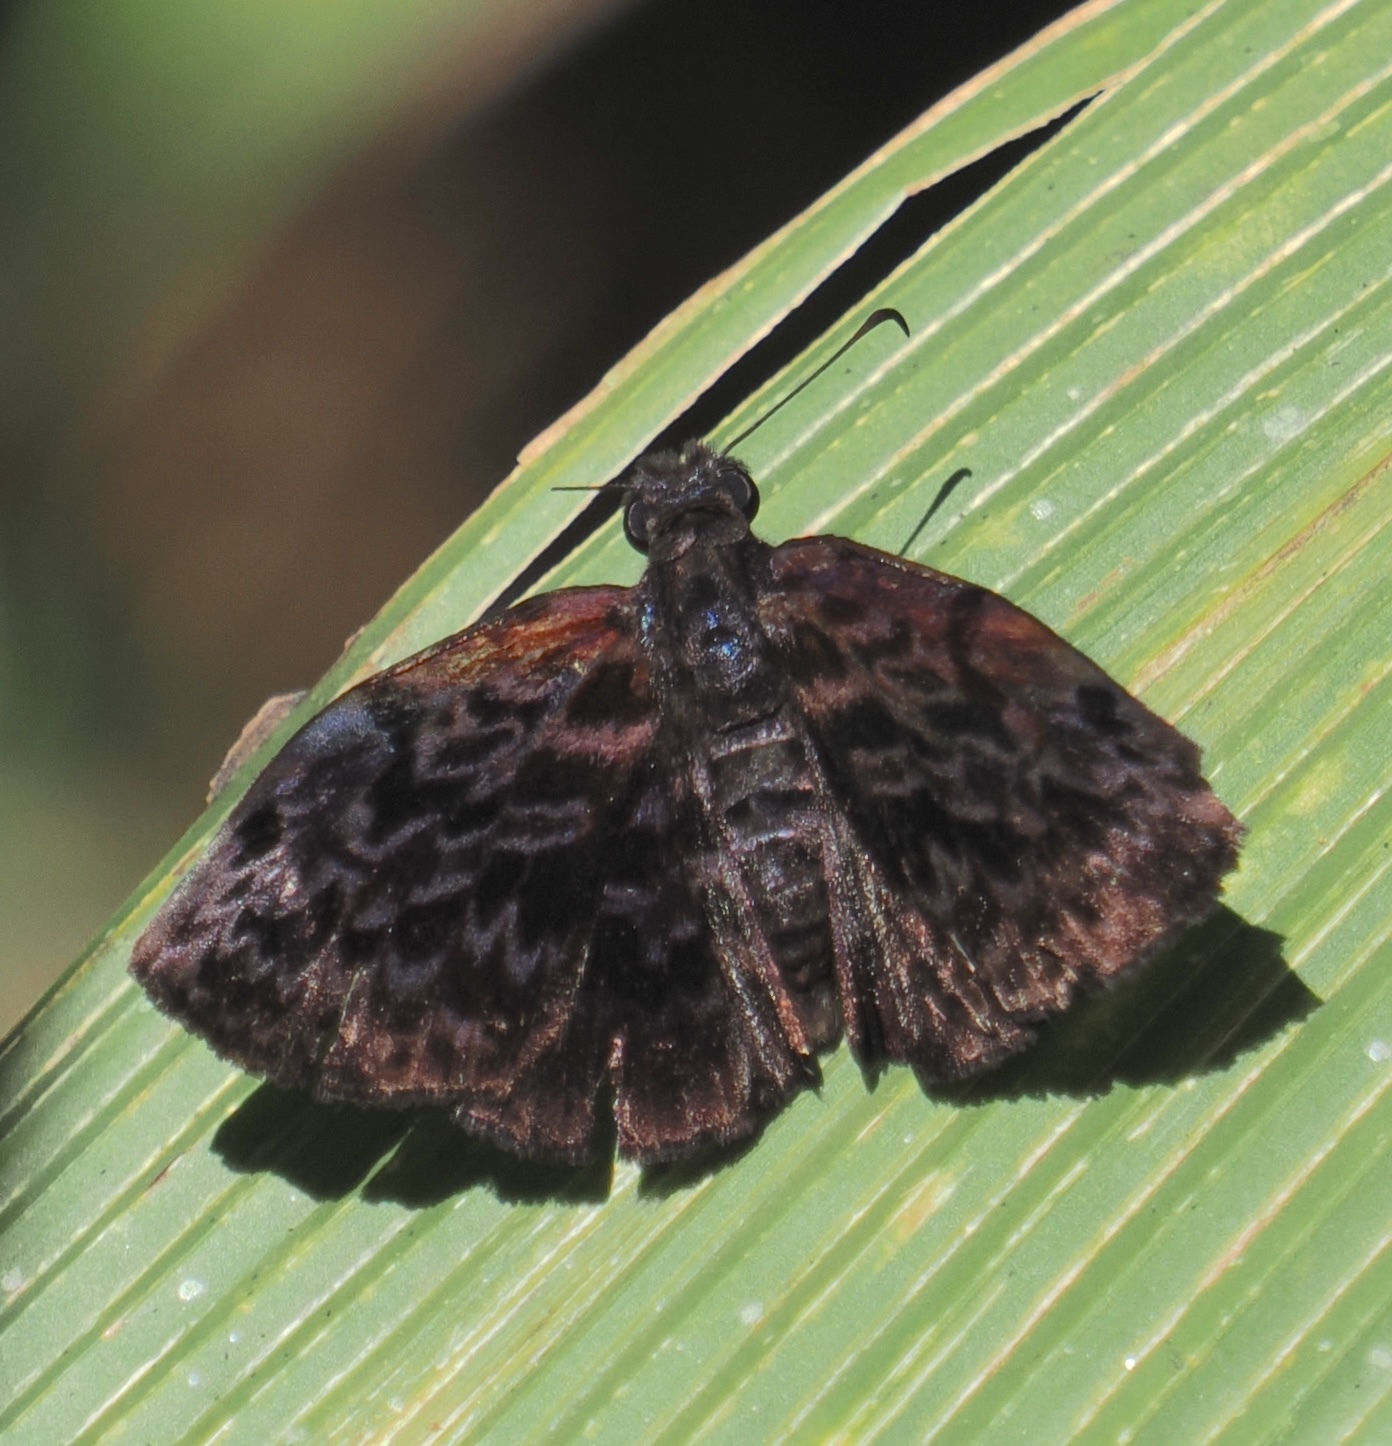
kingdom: Animalia
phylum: Arthropoda
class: Insecta
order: Lepidoptera
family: Hesperiidae
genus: Cycloglypha
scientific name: Cycloglypha thrasibulus
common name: Widespread bent-skipper
